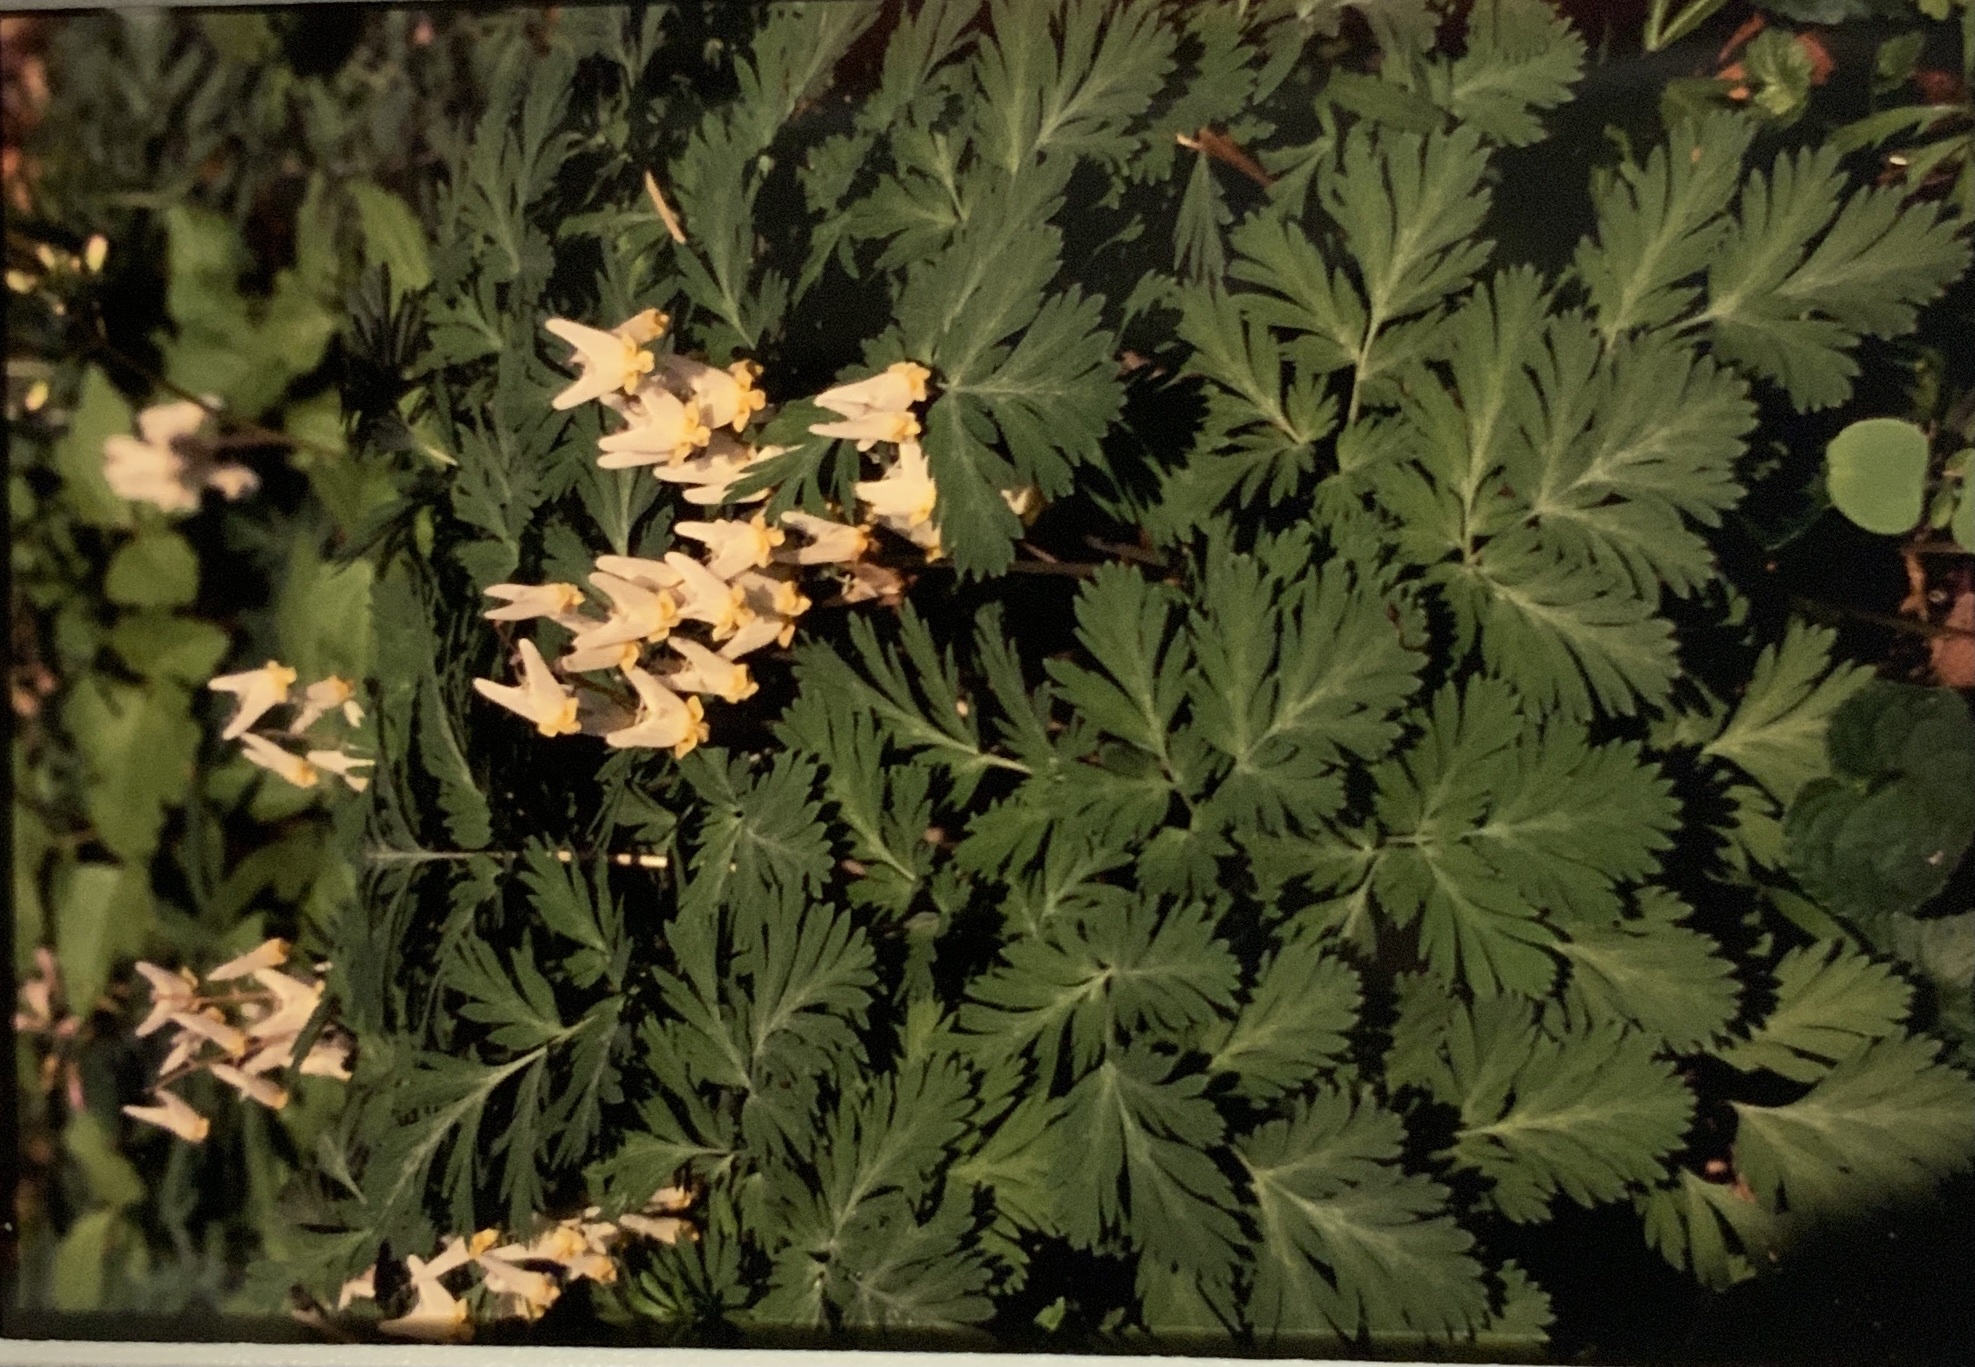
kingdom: Plantae
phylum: Tracheophyta
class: Magnoliopsida
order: Ranunculales
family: Papaveraceae
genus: Dicentra
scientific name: Dicentra cucullaria
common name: Dutchman's breeches
